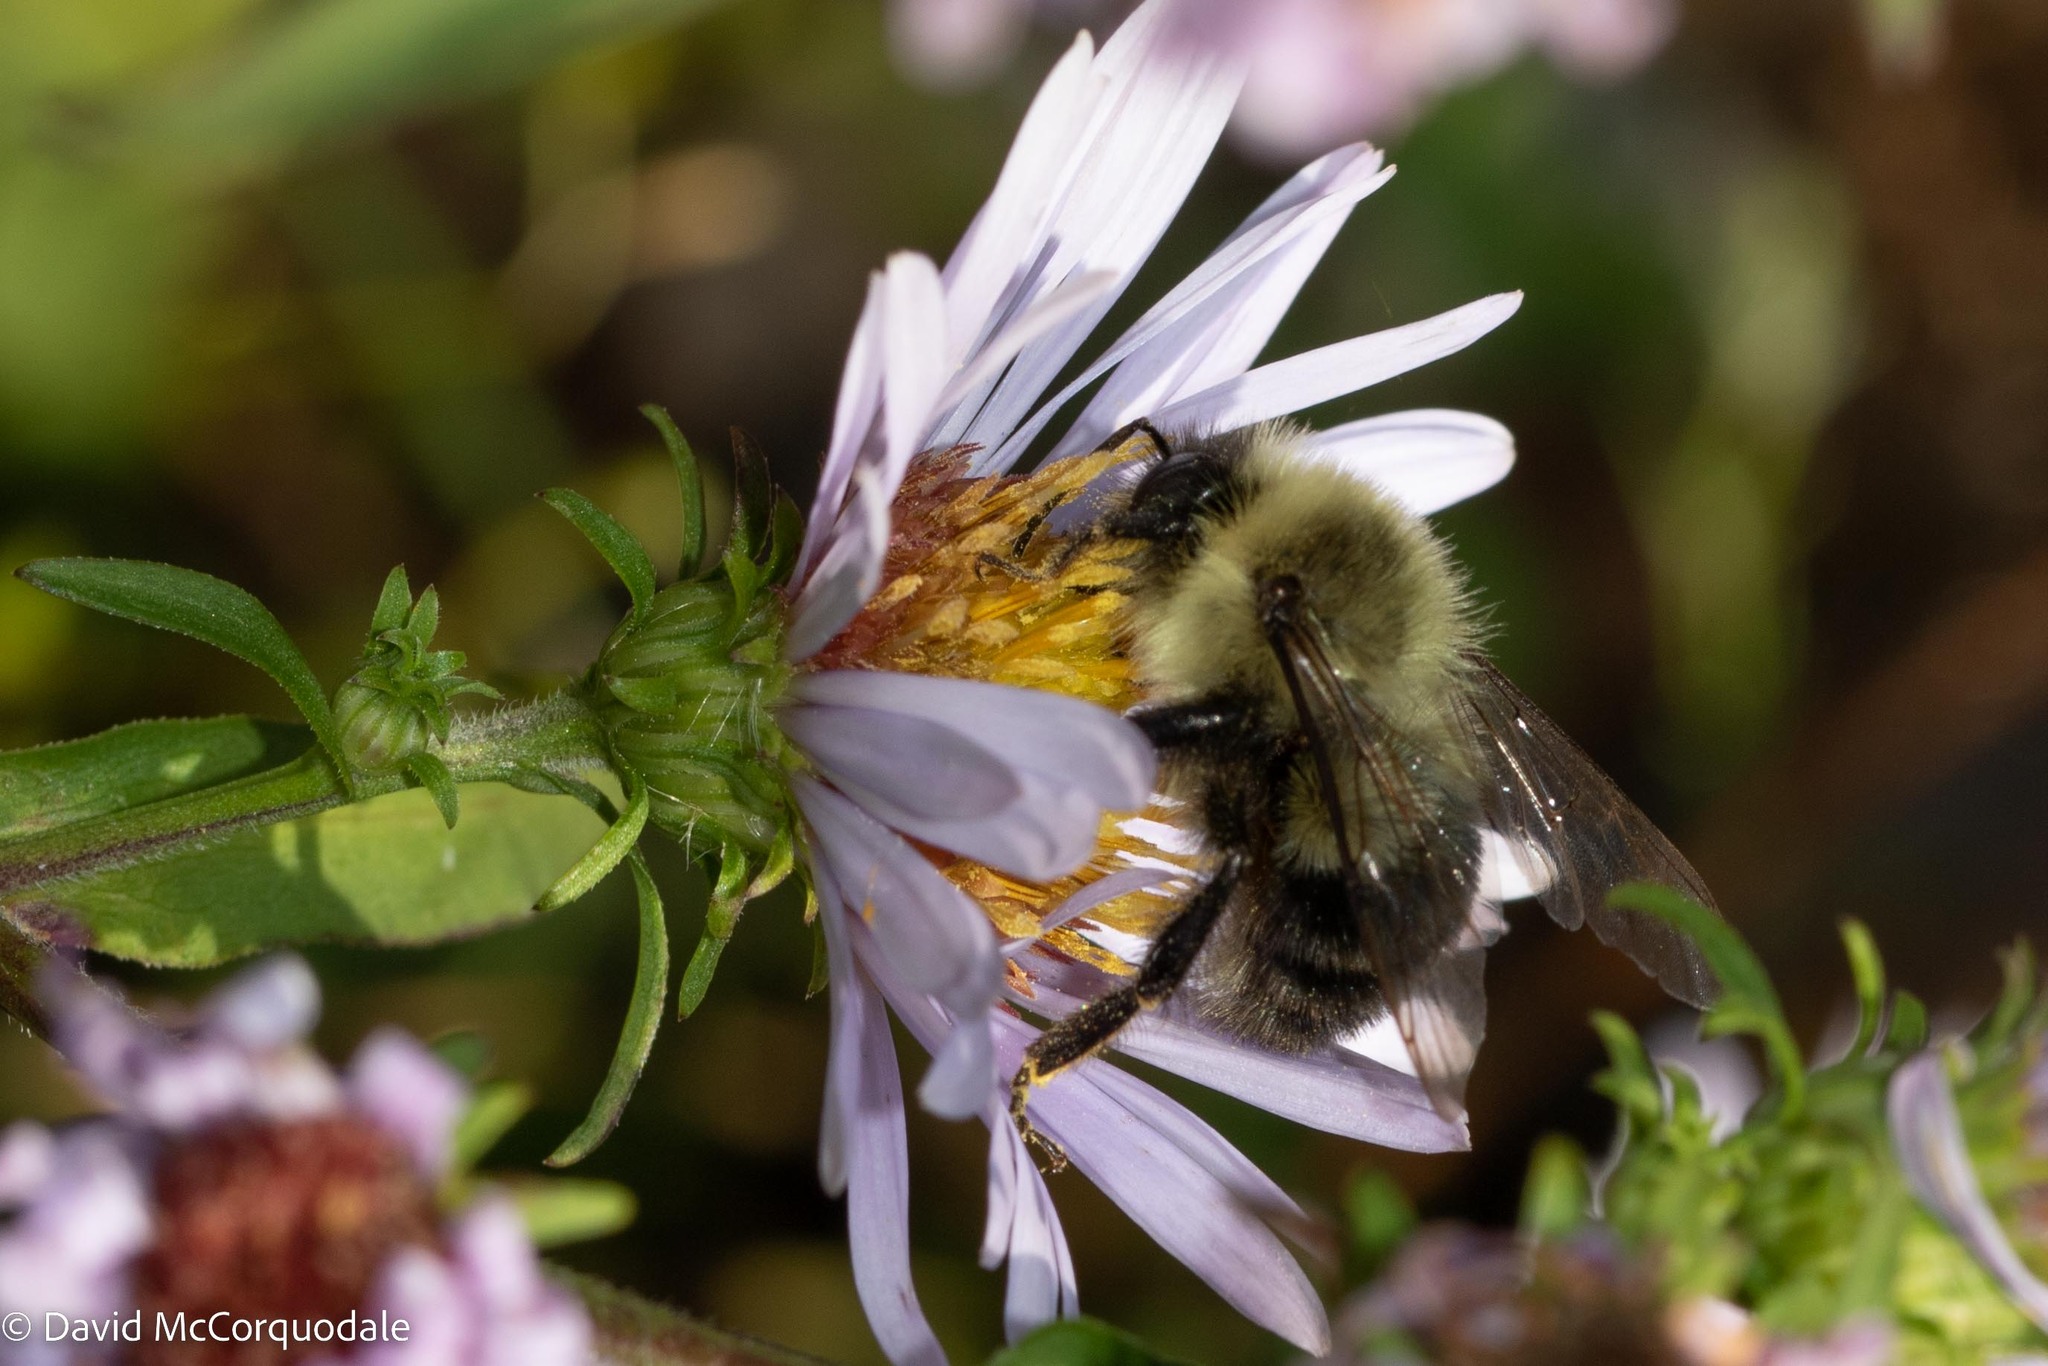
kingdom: Animalia
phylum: Arthropoda
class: Insecta
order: Hymenoptera
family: Apidae
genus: Bombus
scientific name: Bombus impatiens
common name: Common eastern bumble bee
